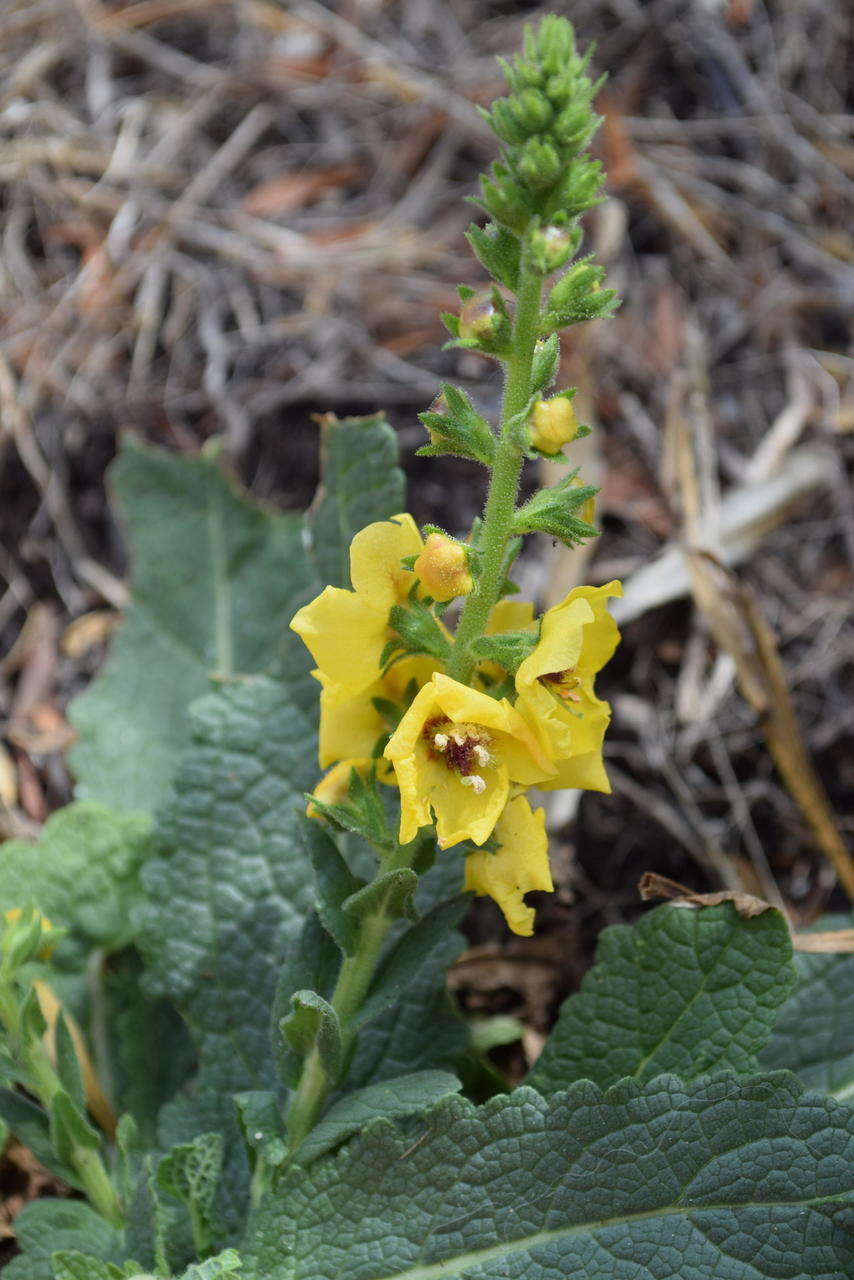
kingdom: Plantae
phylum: Tracheophyta
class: Magnoliopsida
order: Lamiales
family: Scrophulariaceae
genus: Verbascum
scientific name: Verbascum virgatum
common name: Twiggy mullein
